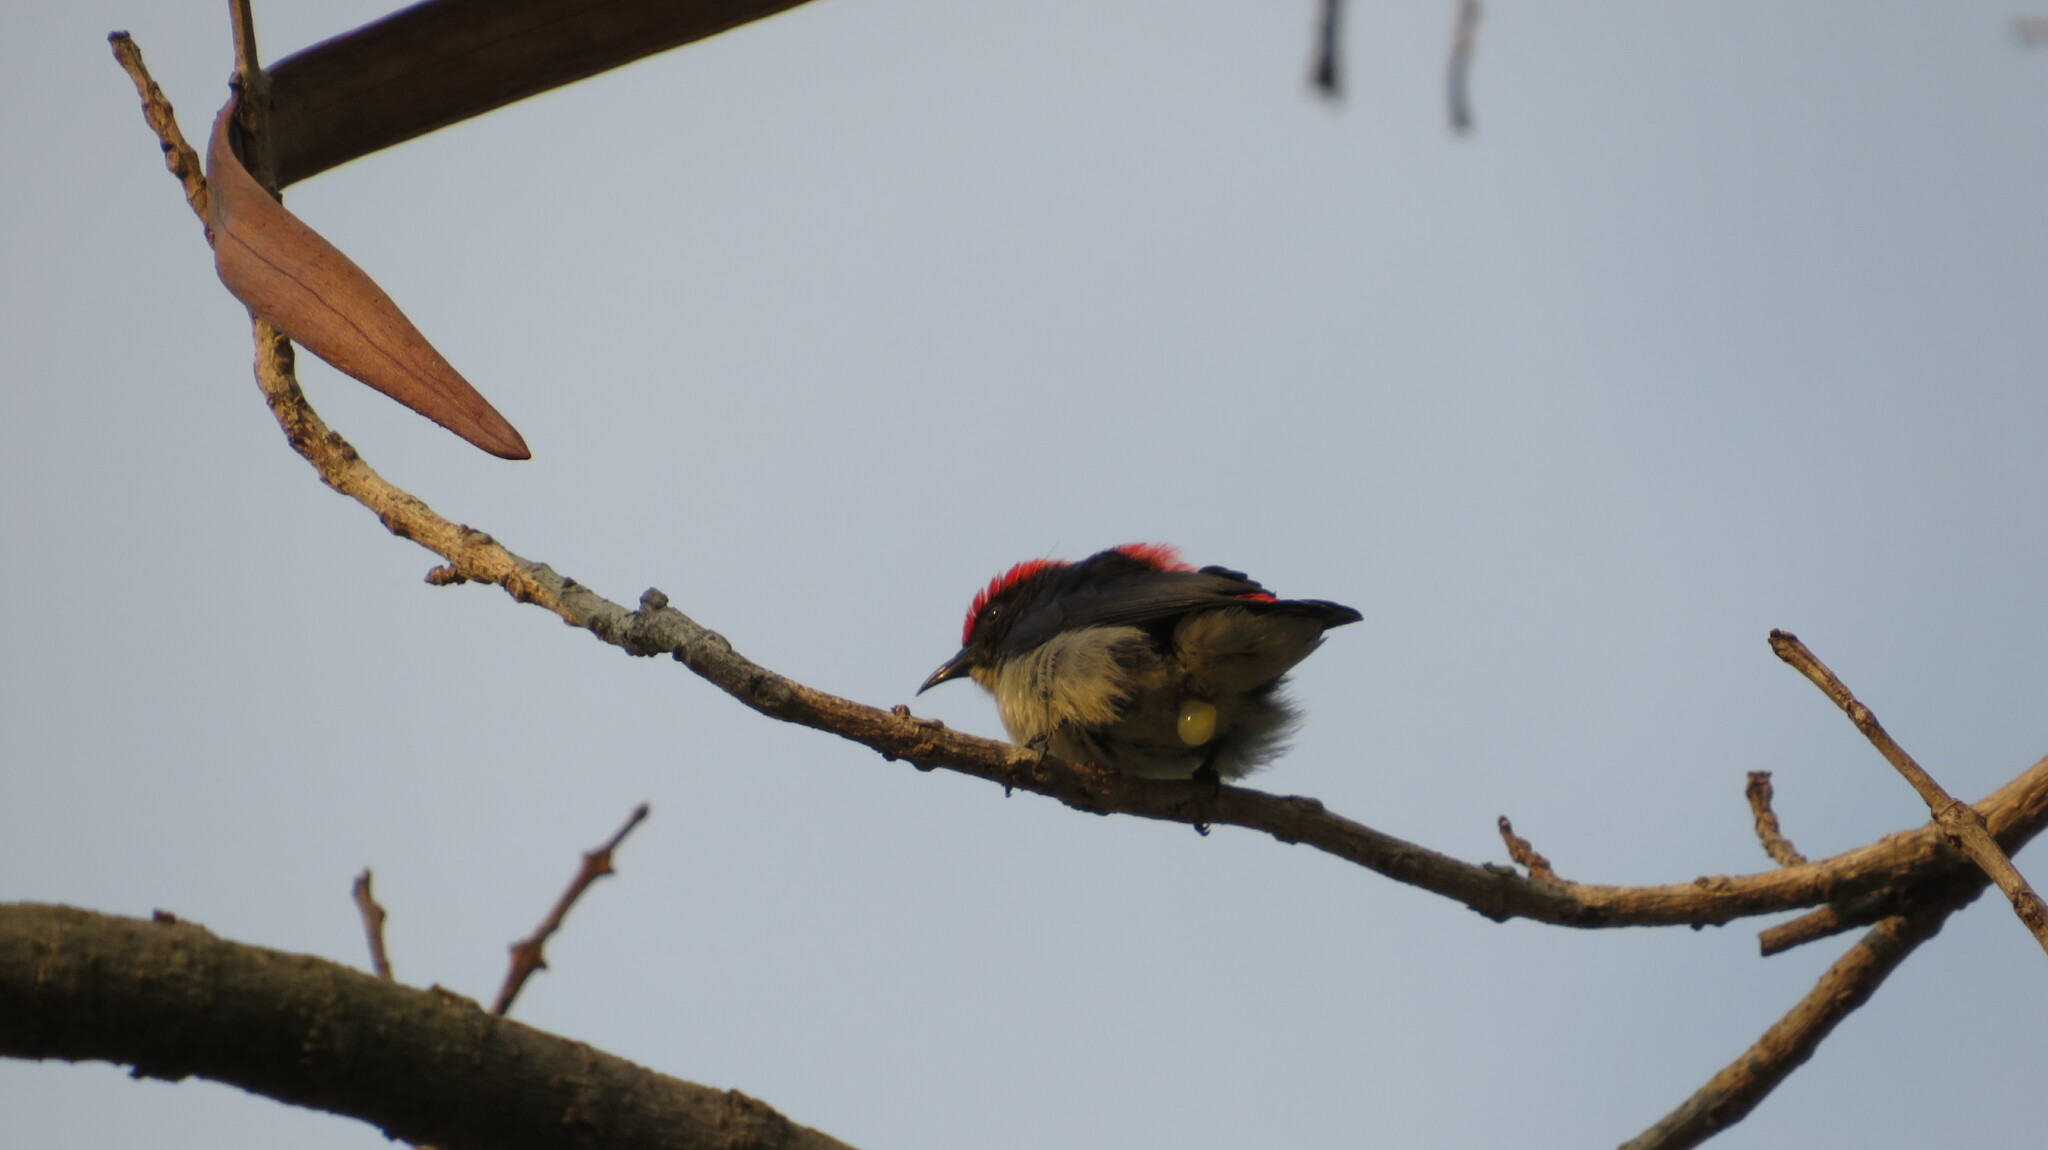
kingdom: Animalia
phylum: Chordata
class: Aves
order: Passeriformes
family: Dicaeidae
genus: Dicaeum
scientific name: Dicaeum cruentatum
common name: Scarlet-backed flowerpecker
